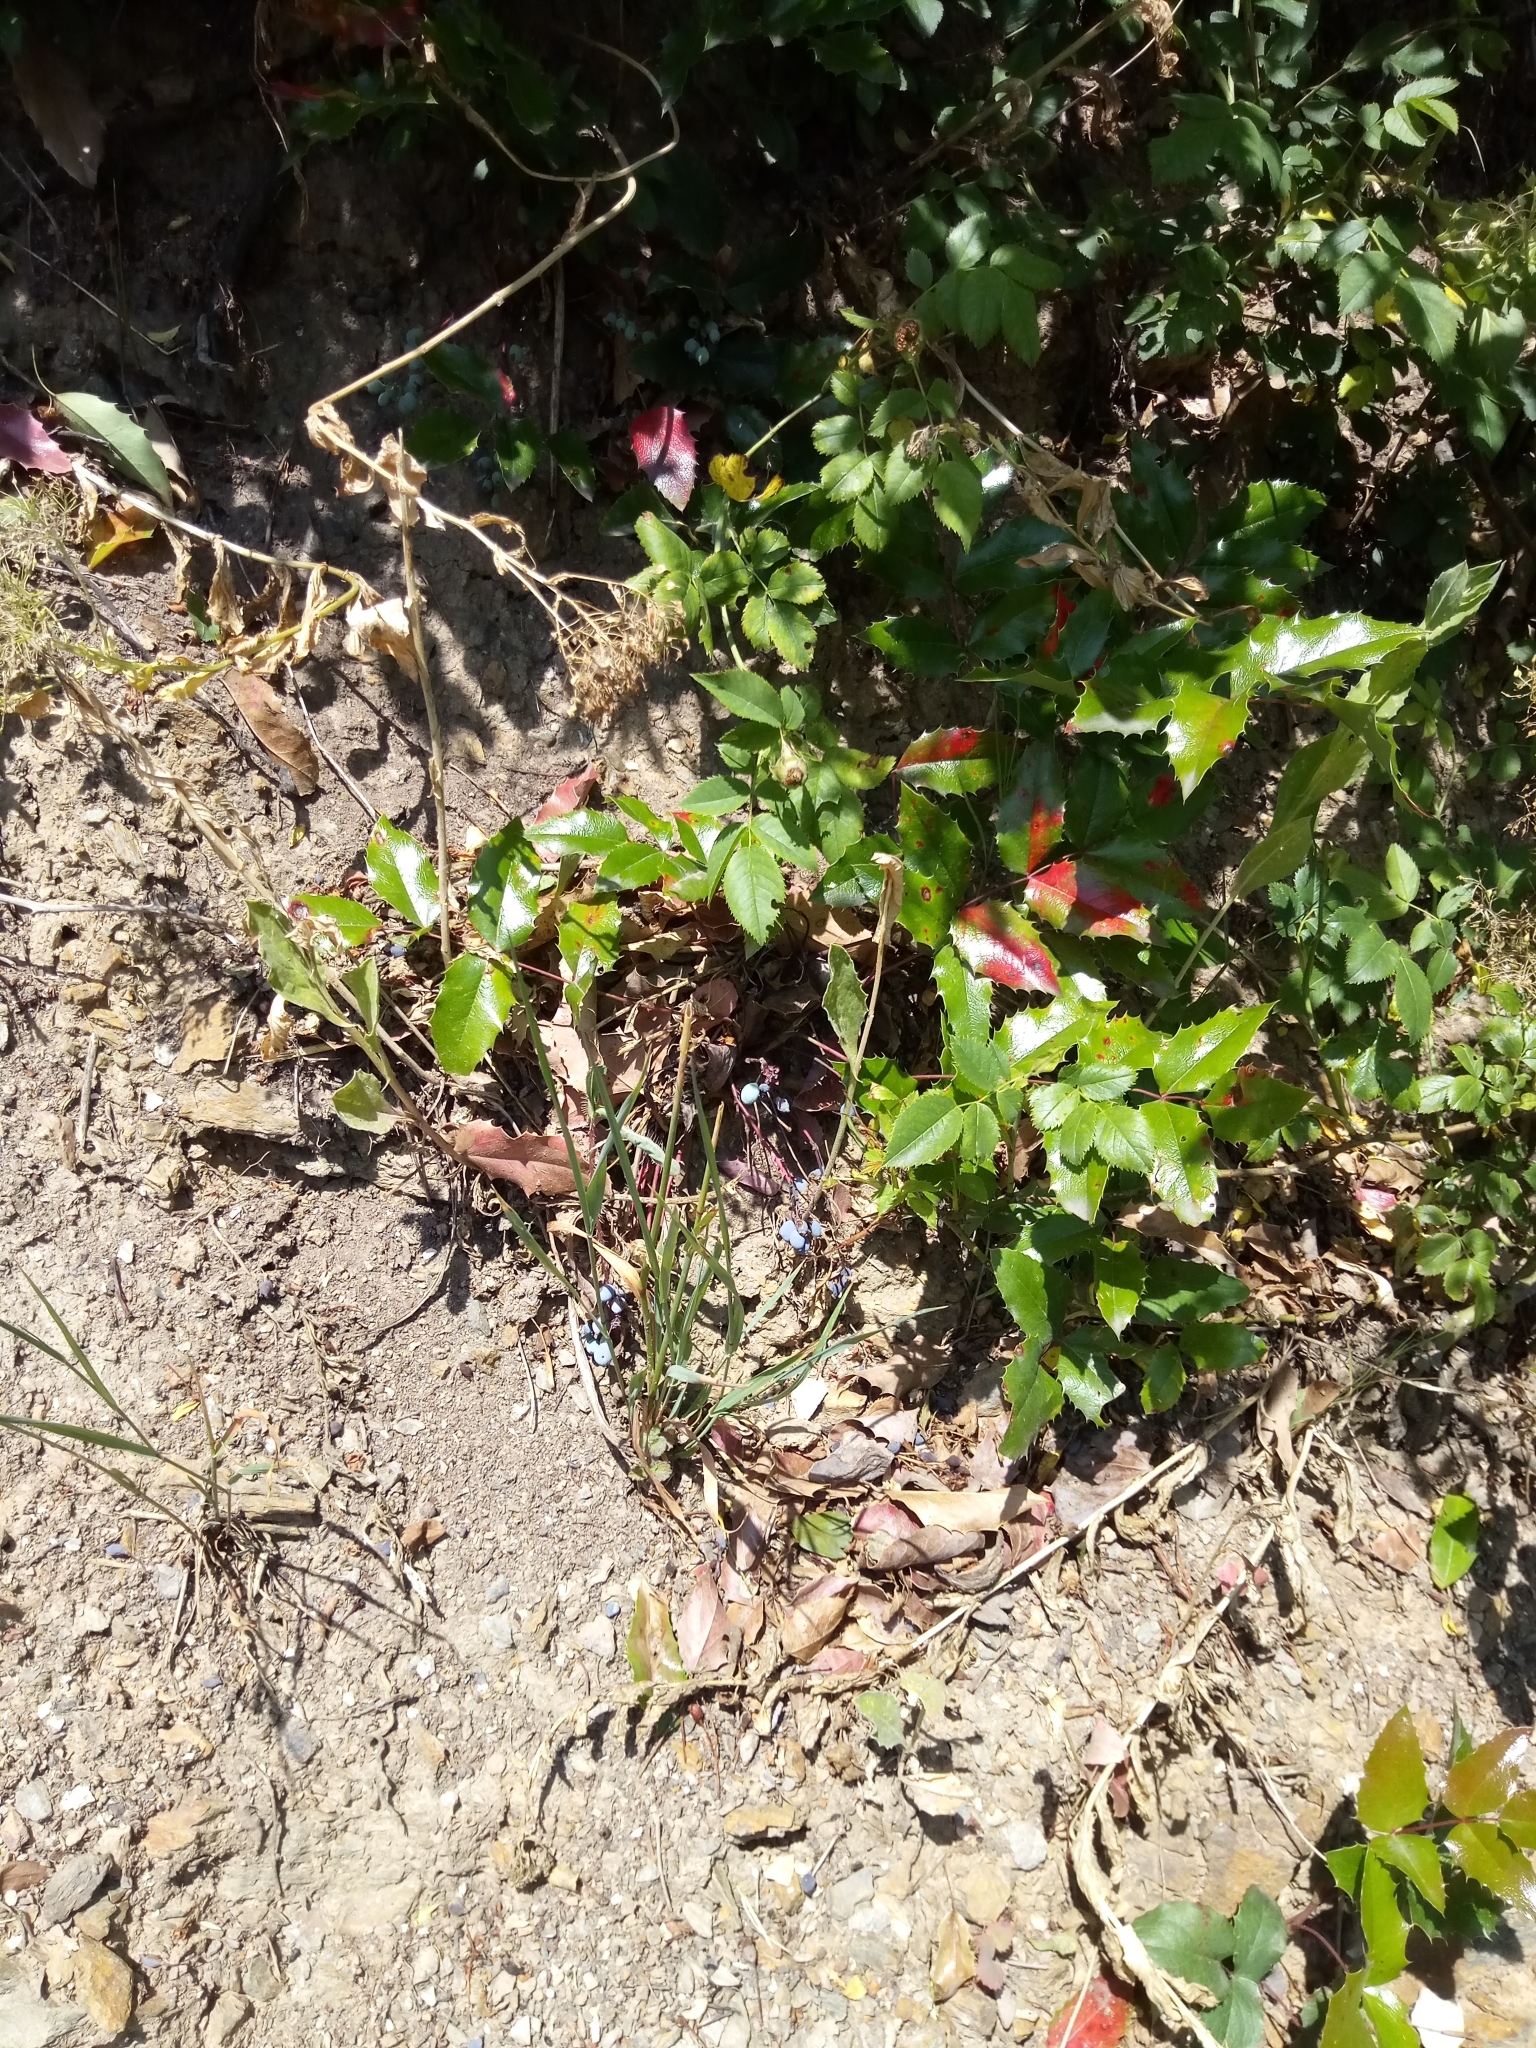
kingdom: Plantae
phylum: Tracheophyta
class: Magnoliopsida
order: Ranunculales
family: Berberidaceae
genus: Mahonia
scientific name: Mahonia aquifolium
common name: Oregon-grape
